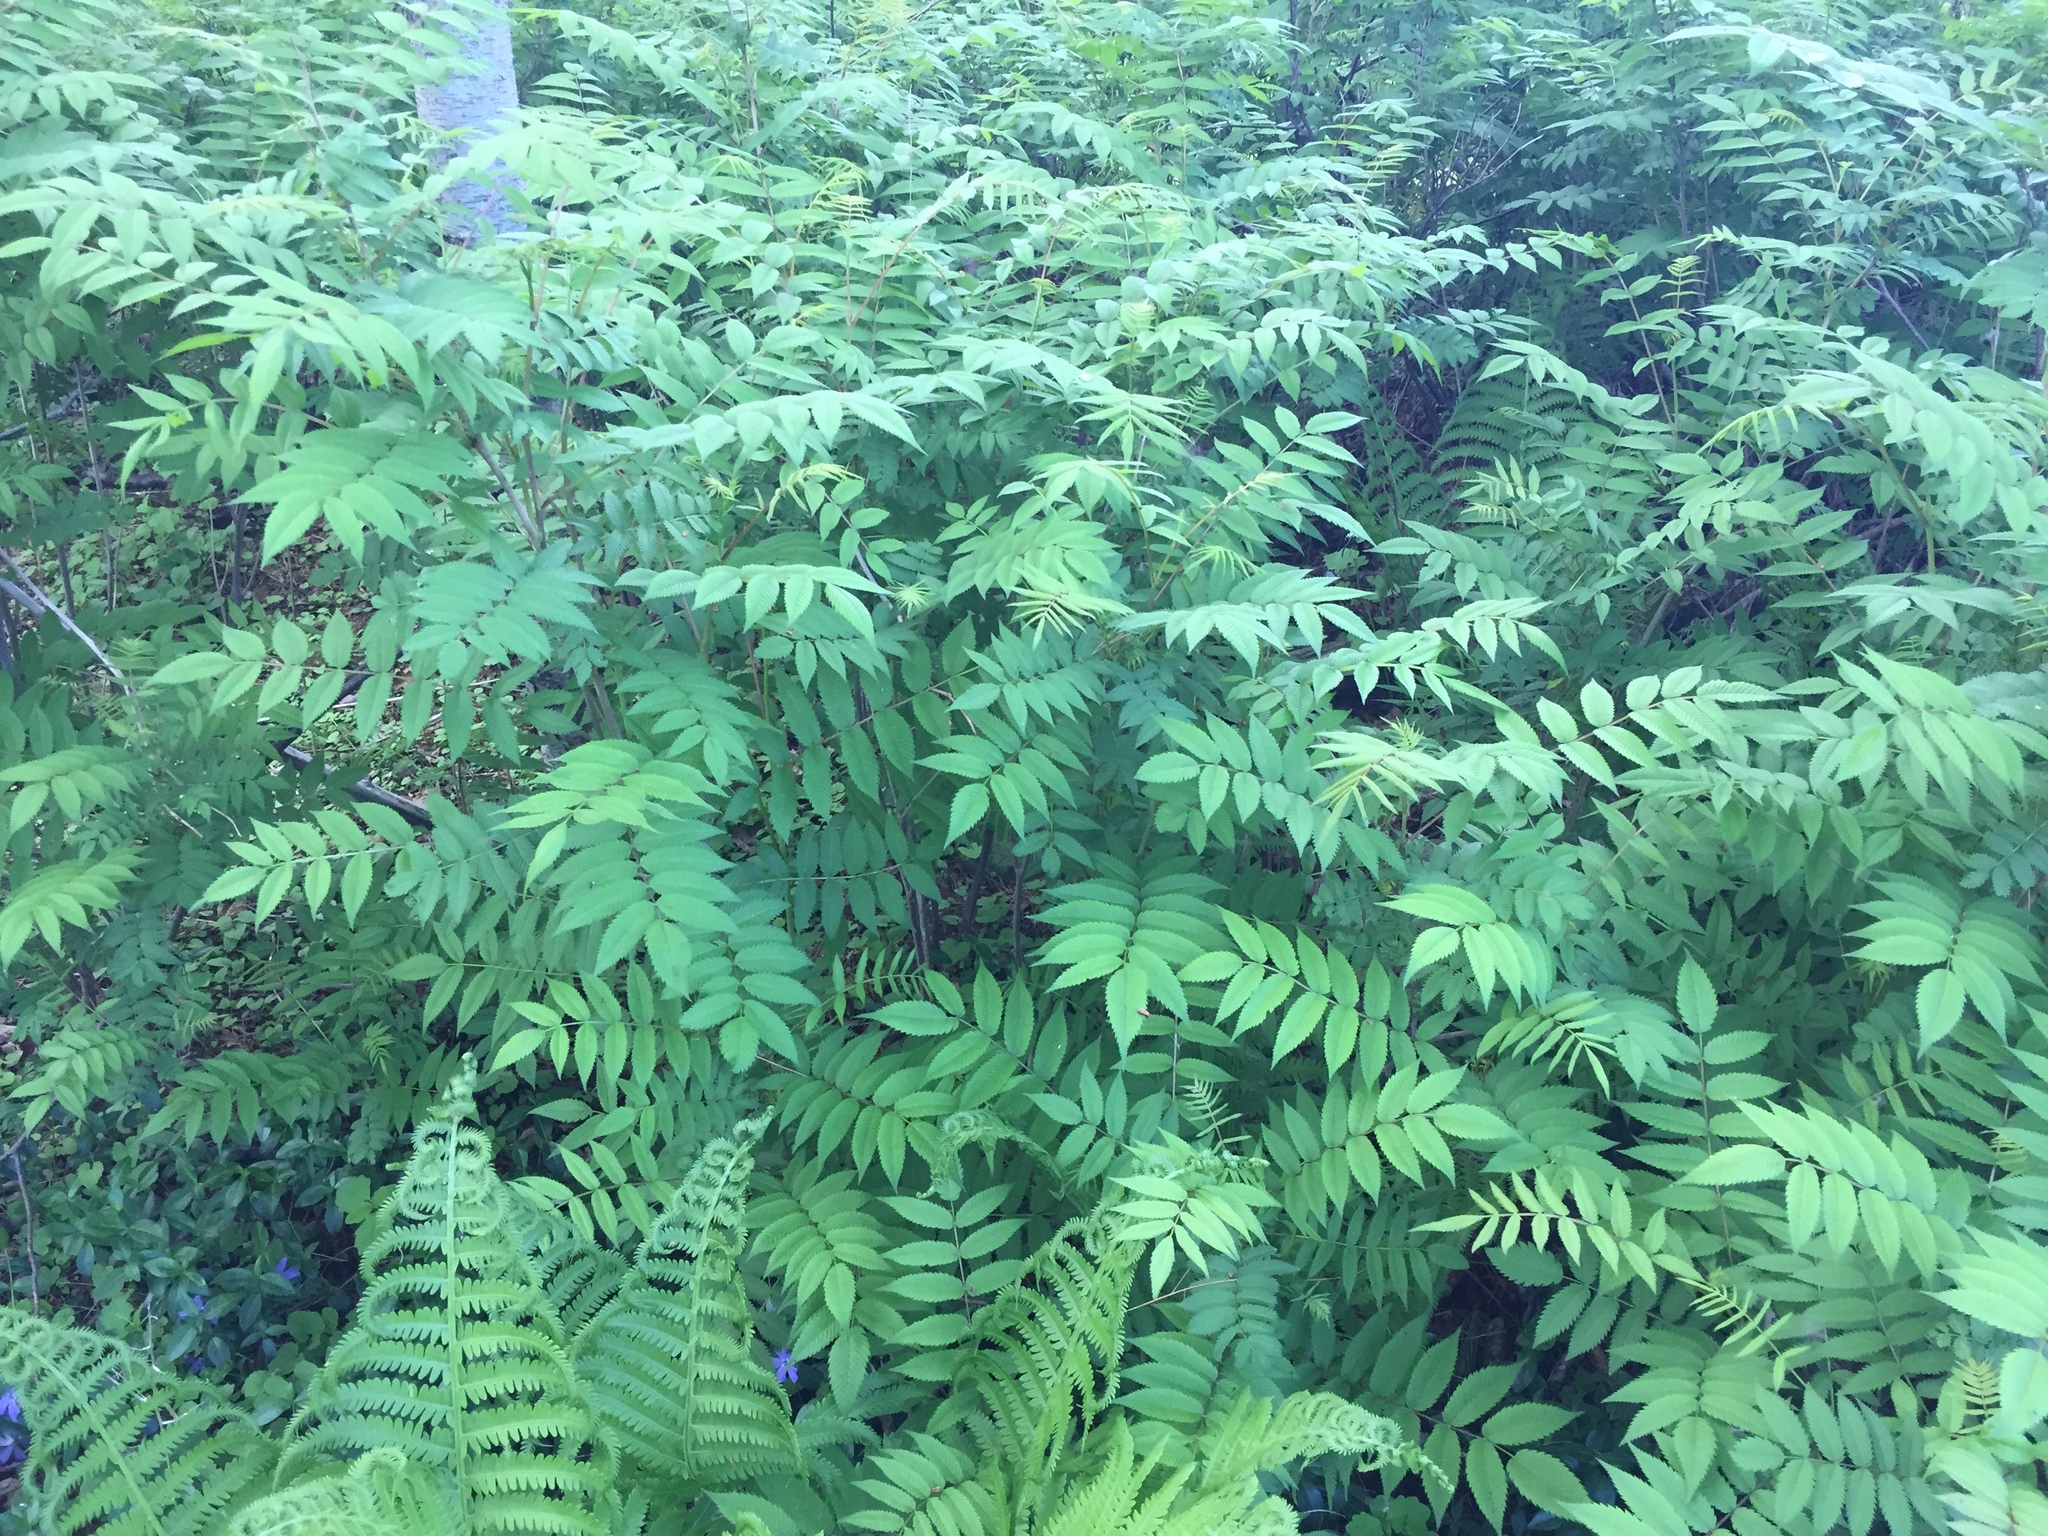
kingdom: Plantae
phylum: Tracheophyta
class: Magnoliopsida
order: Rosales
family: Rosaceae
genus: Sorbaria
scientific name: Sorbaria sorbifolia
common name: False spiraea
